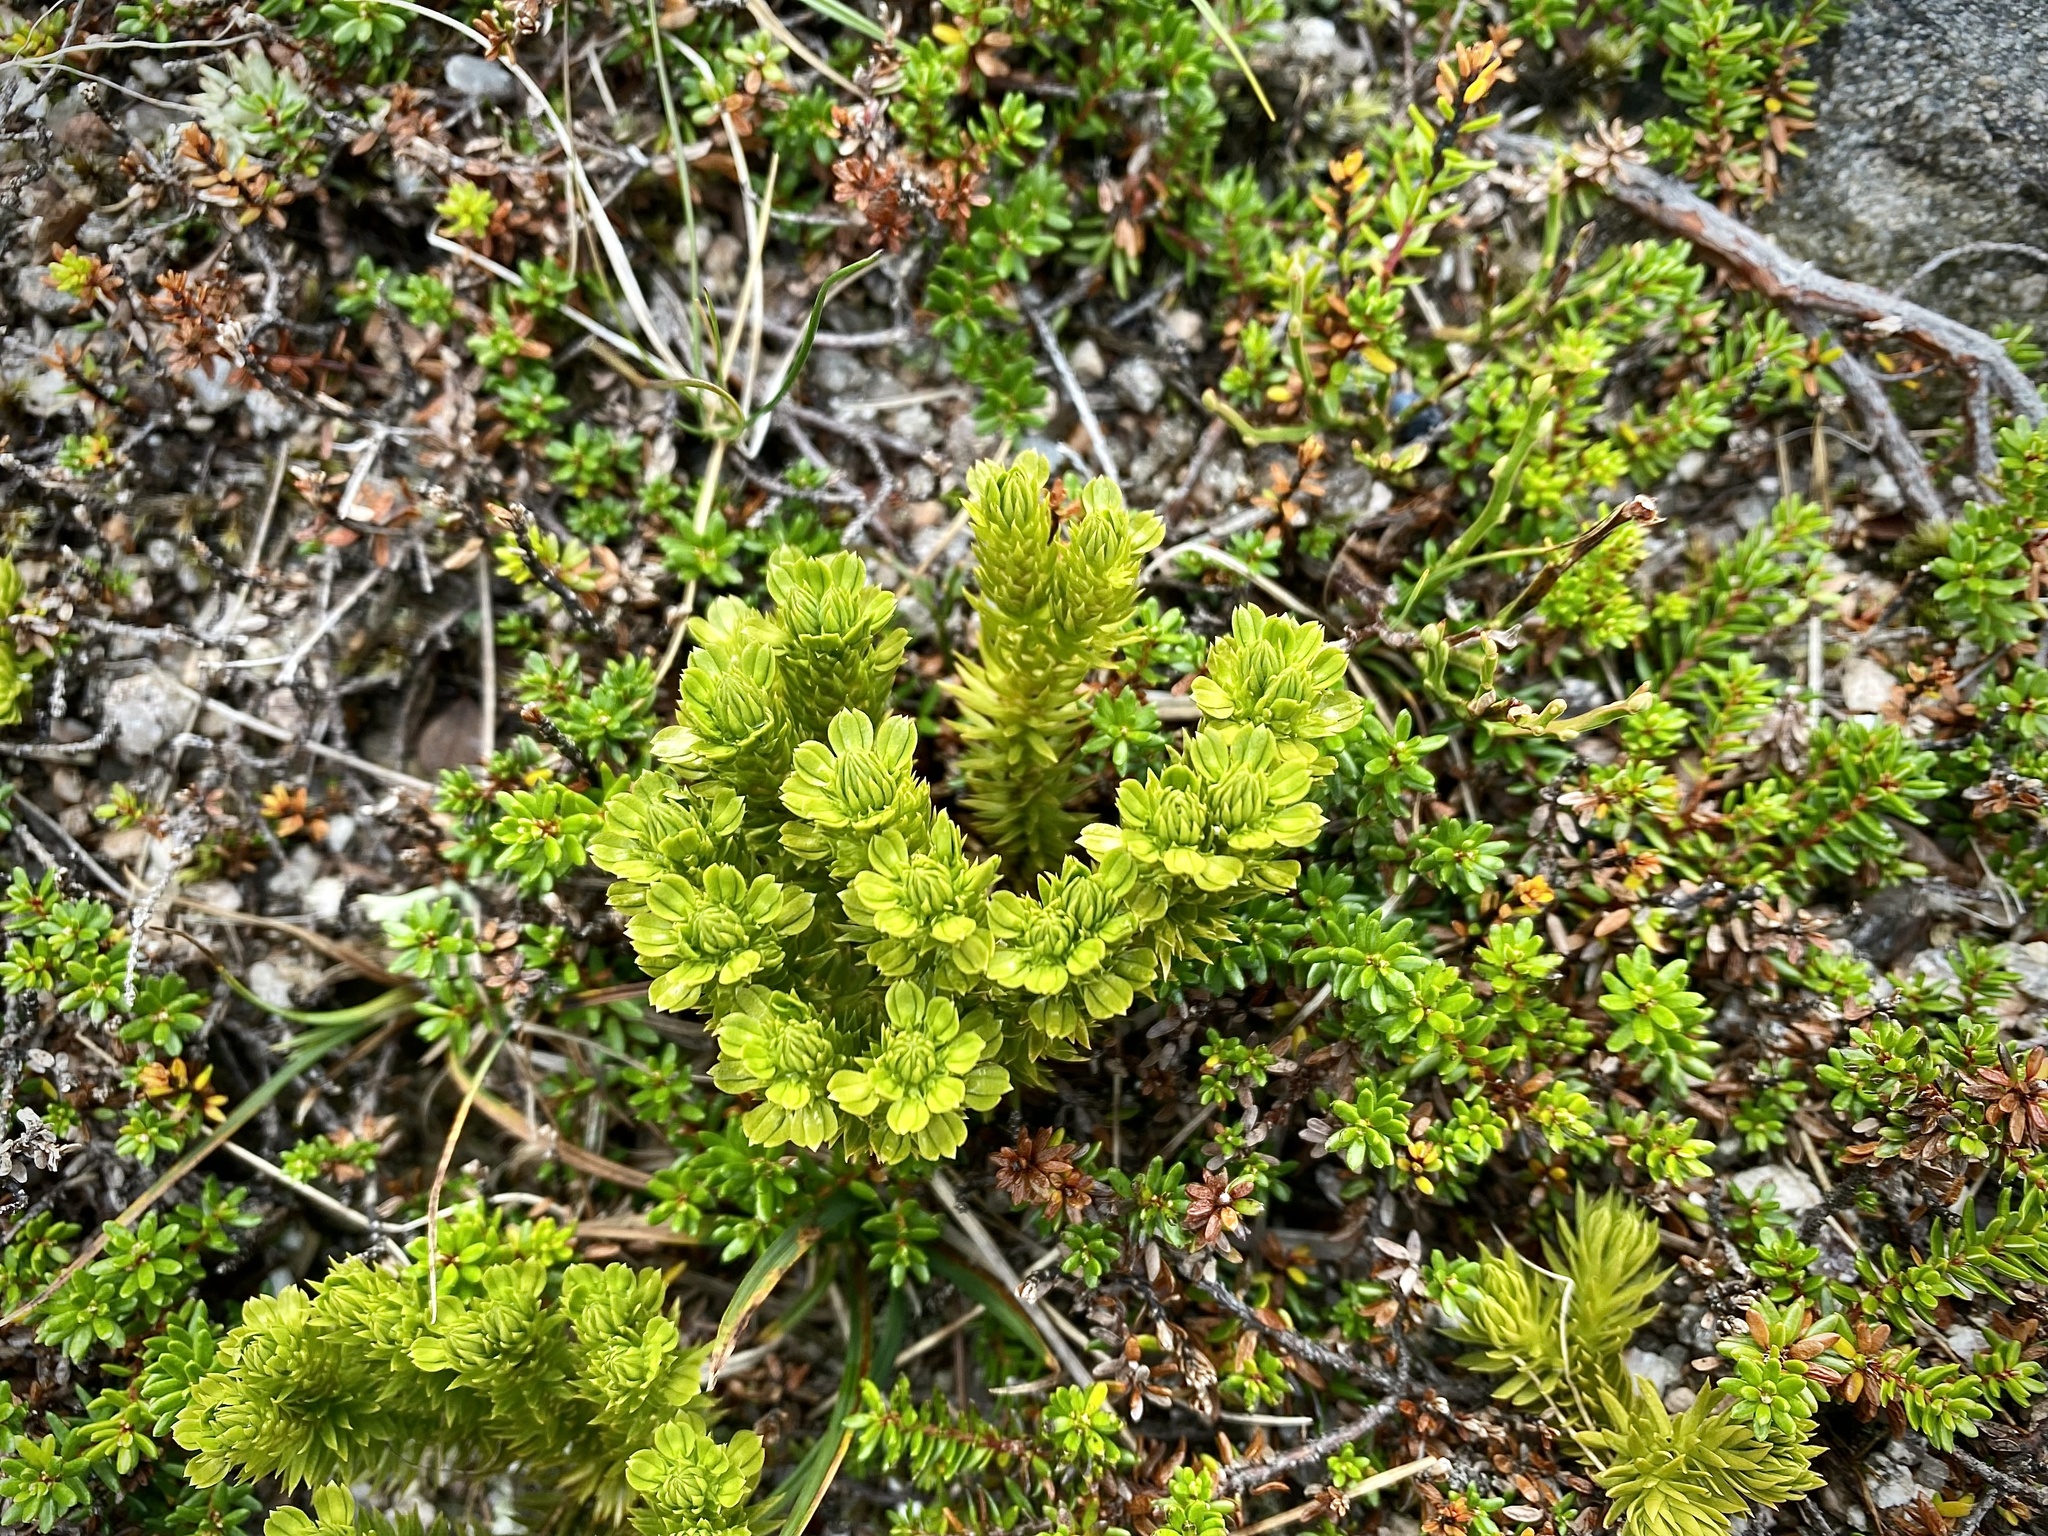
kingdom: Plantae
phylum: Tracheophyta
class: Lycopodiopsida
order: Lycopodiales
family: Lycopodiaceae
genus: Huperzia
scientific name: Huperzia selago
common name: Northern firmoss
